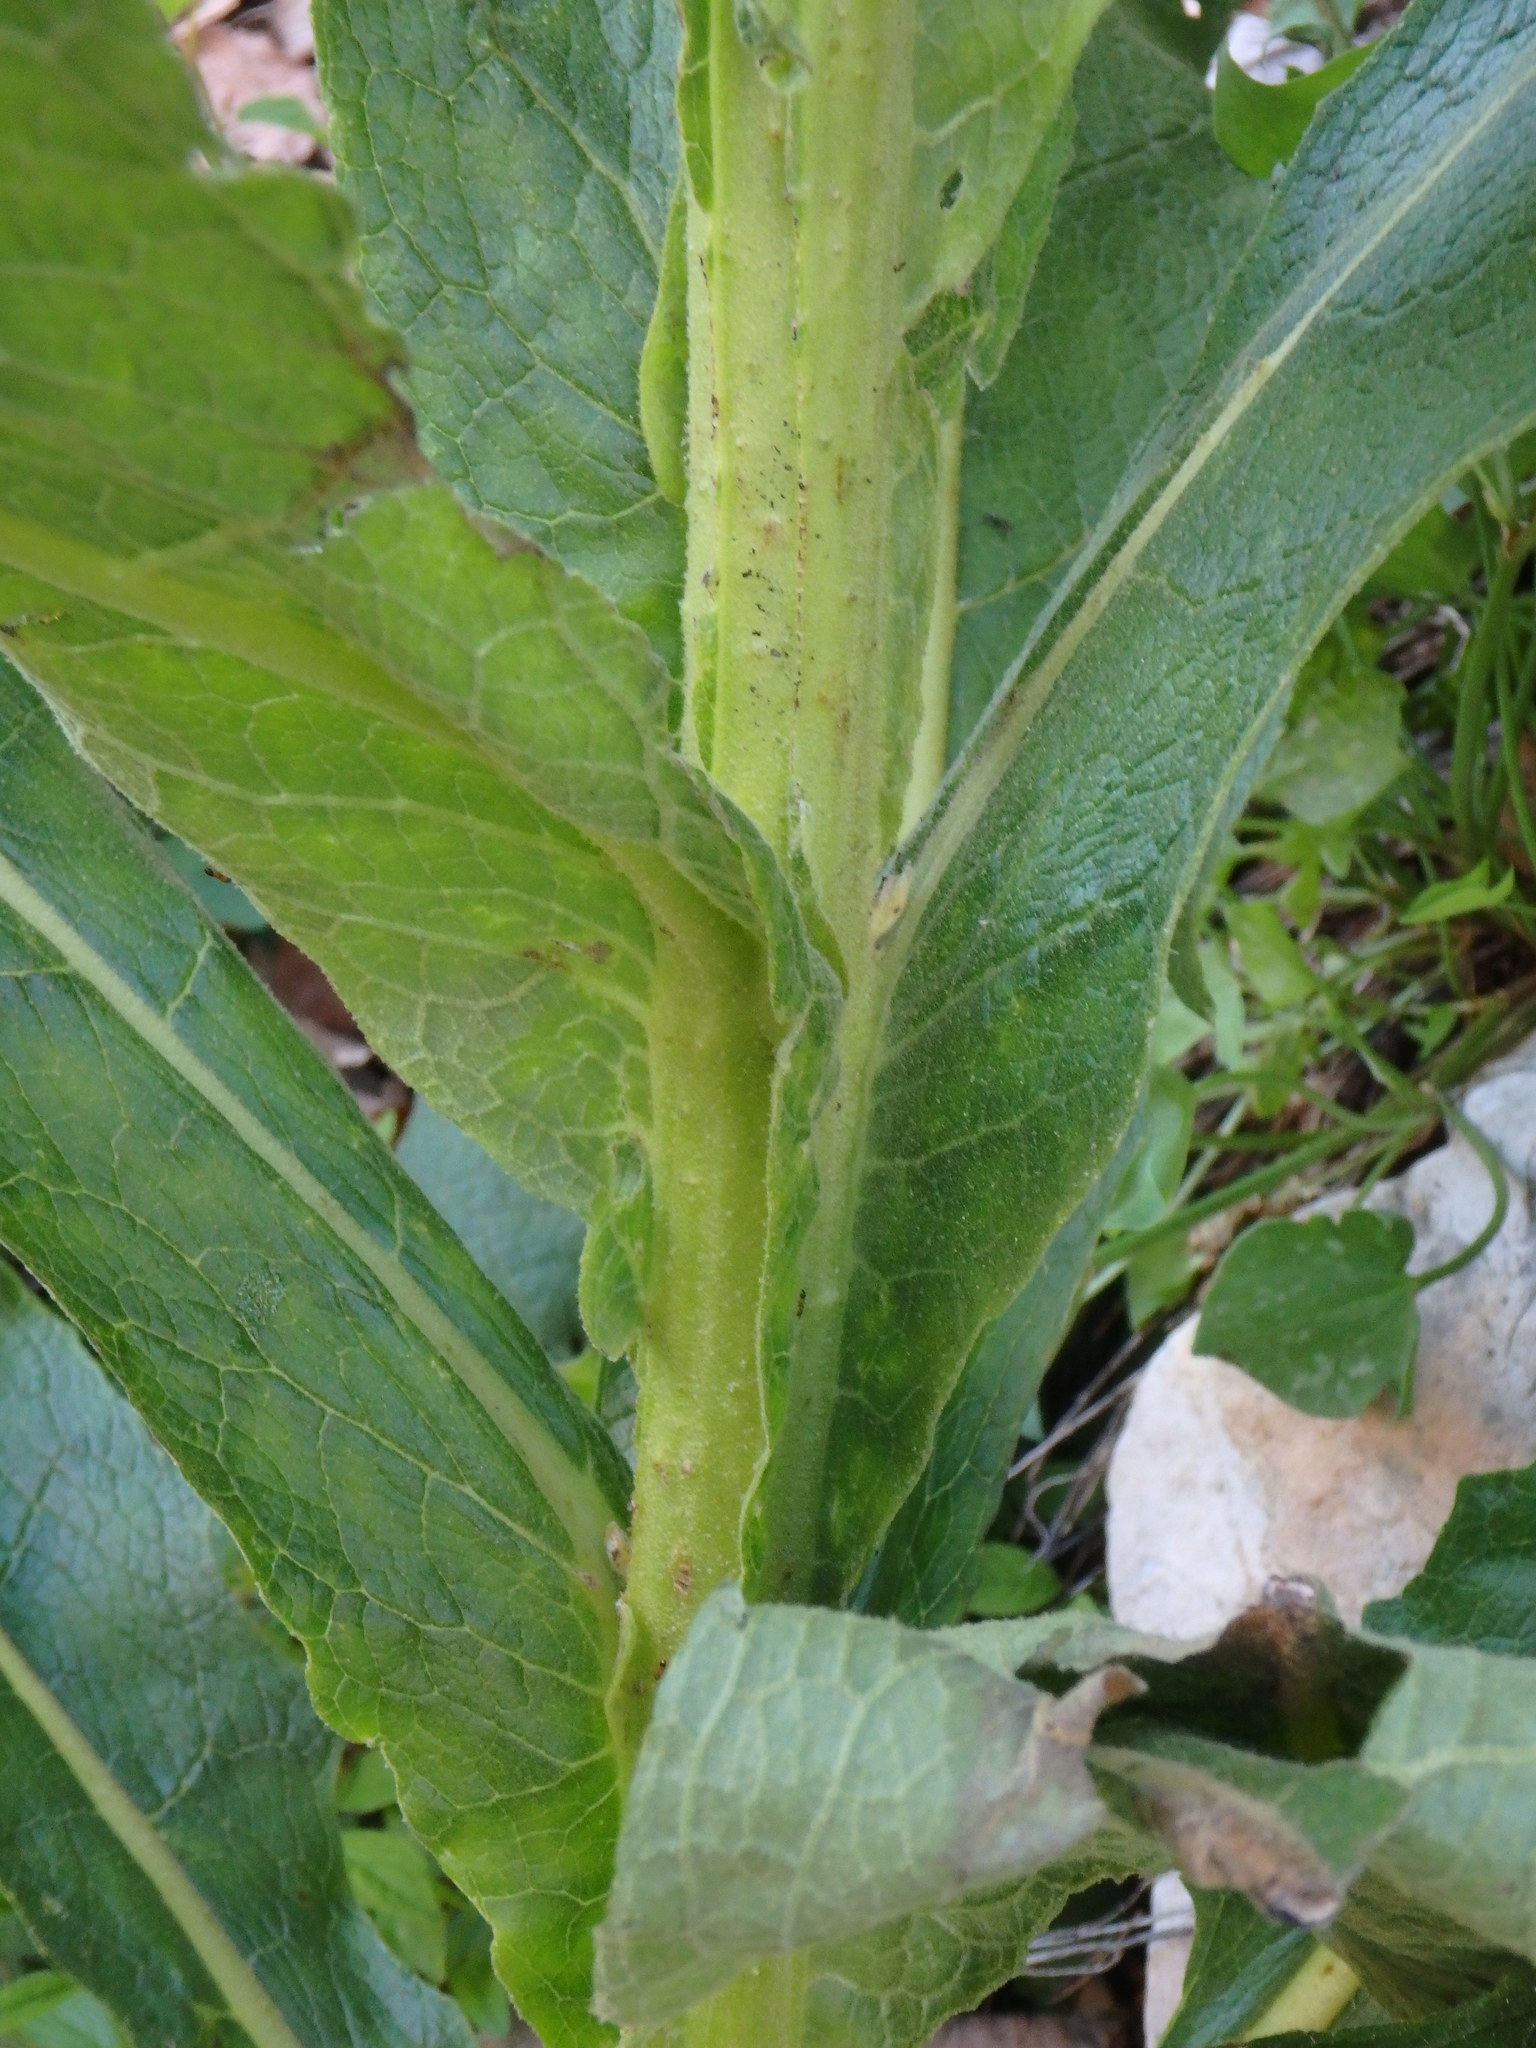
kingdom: Plantae
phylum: Tracheophyta
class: Magnoliopsida
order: Lamiales
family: Scrophulariaceae
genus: Verbascum
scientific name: Verbascum thapsus
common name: Common mullein
